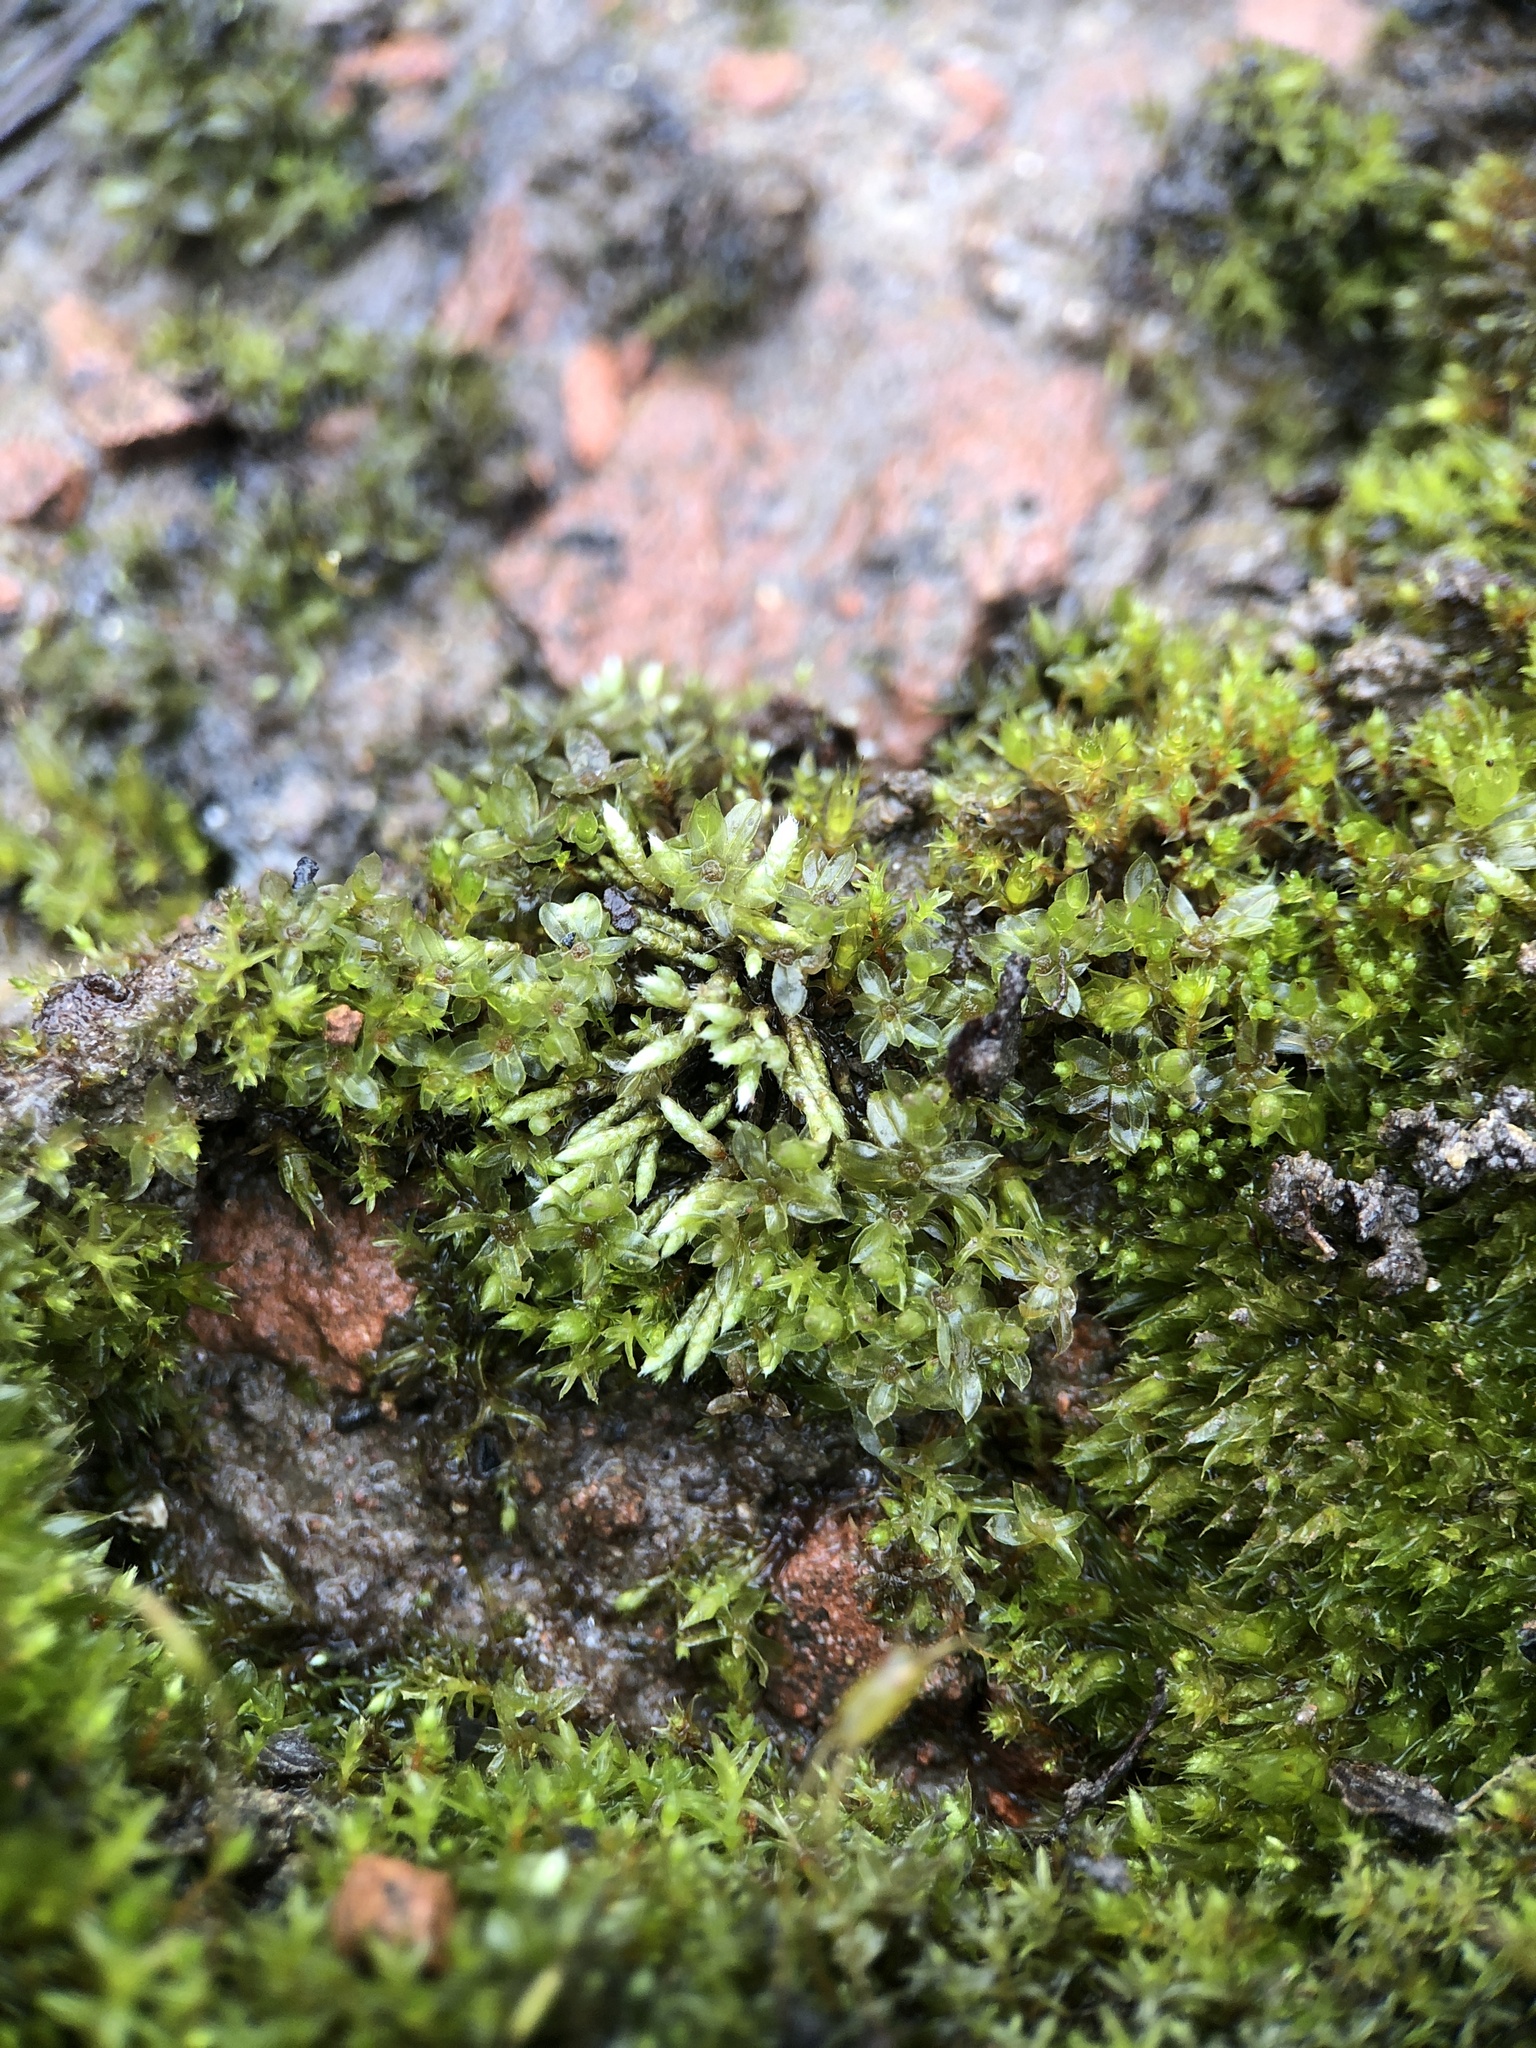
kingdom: Plantae
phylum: Bryophyta
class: Bryopsida
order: Bryales
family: Bryaceae
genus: Bryum
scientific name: Bryum argenteum
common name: Silver-moss
